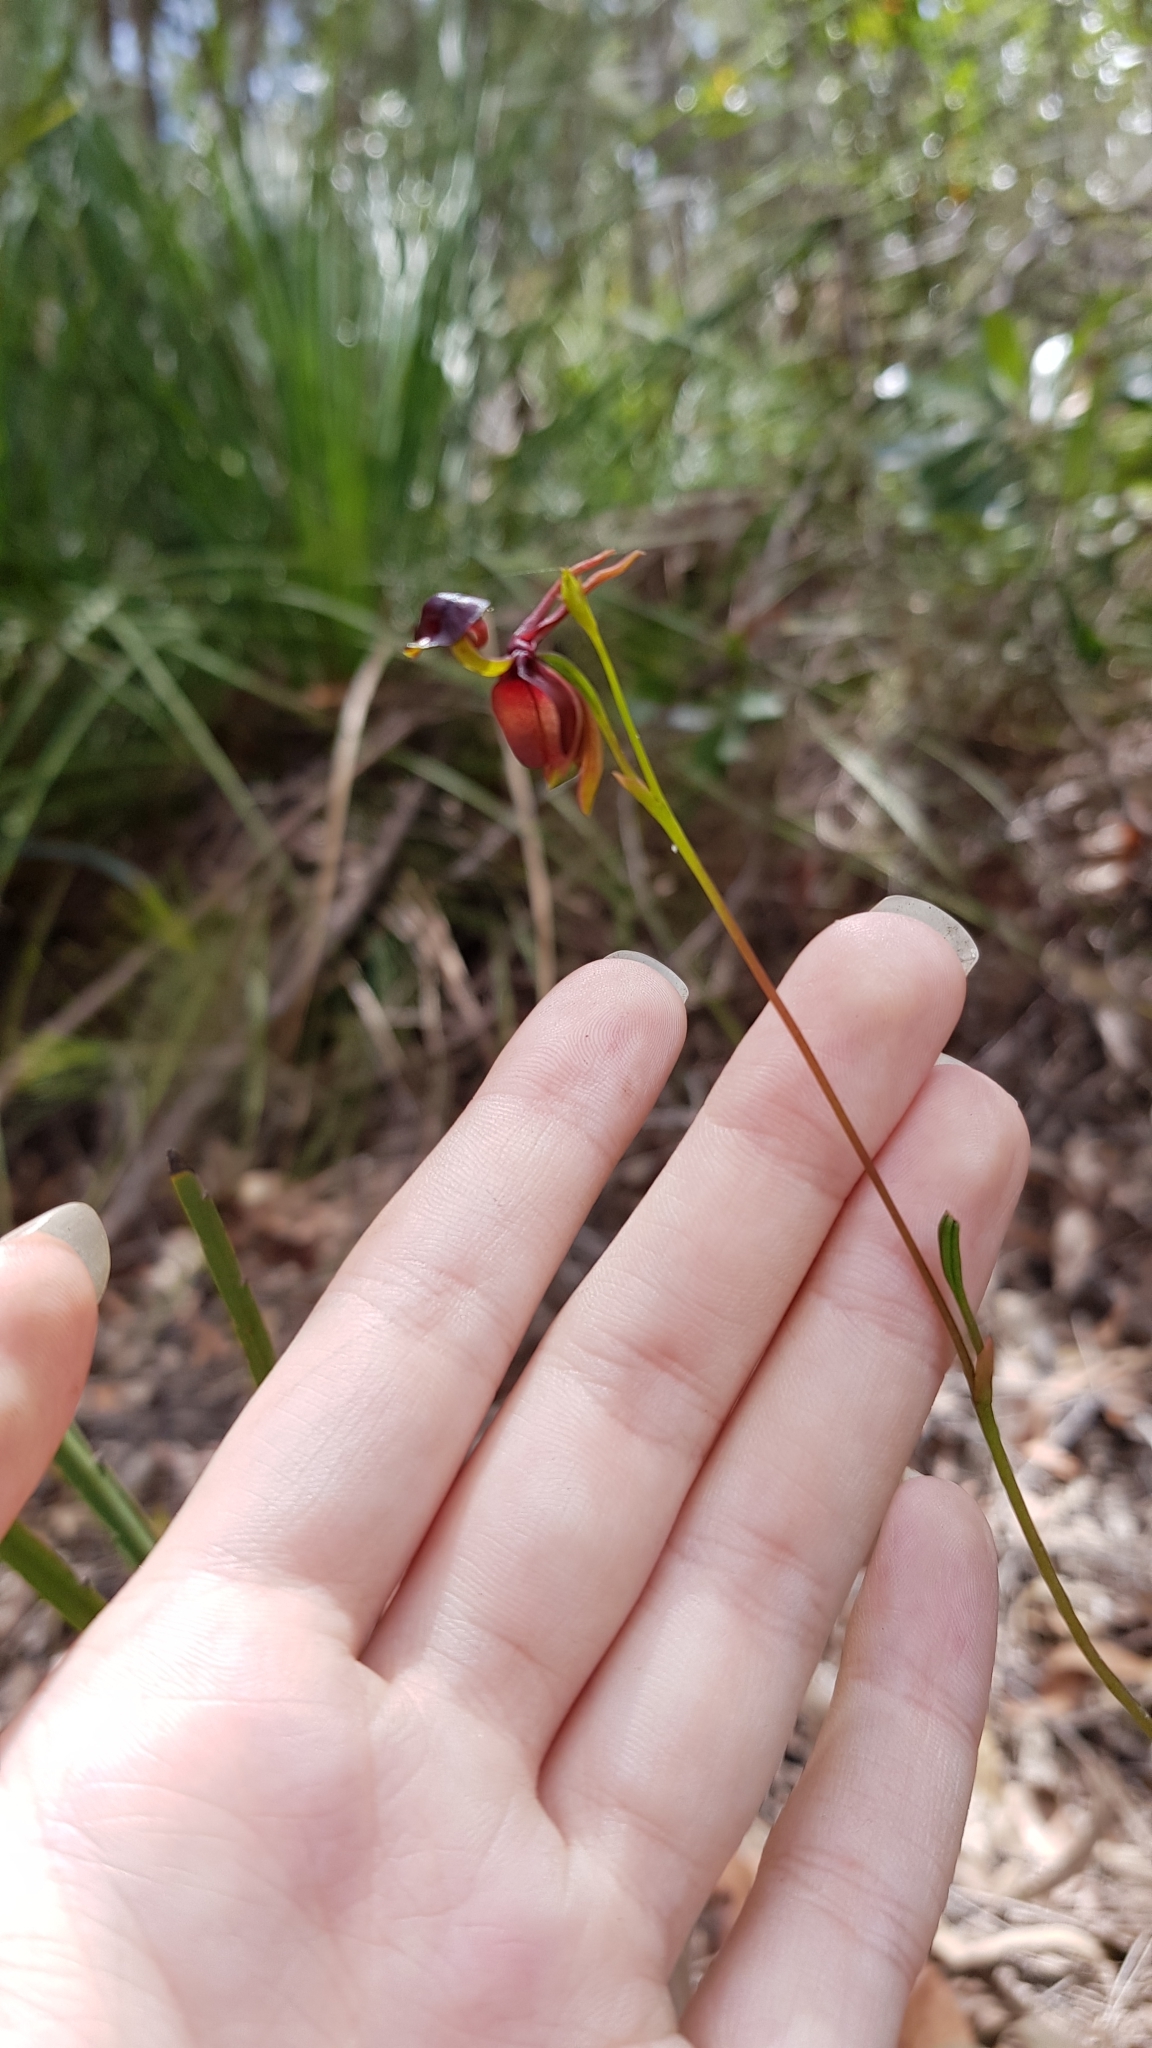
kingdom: Plantae
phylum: Tracheophyta
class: Liliopsida
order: Asparagales
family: Orchidaceae
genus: Caleana
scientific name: Caleana major
